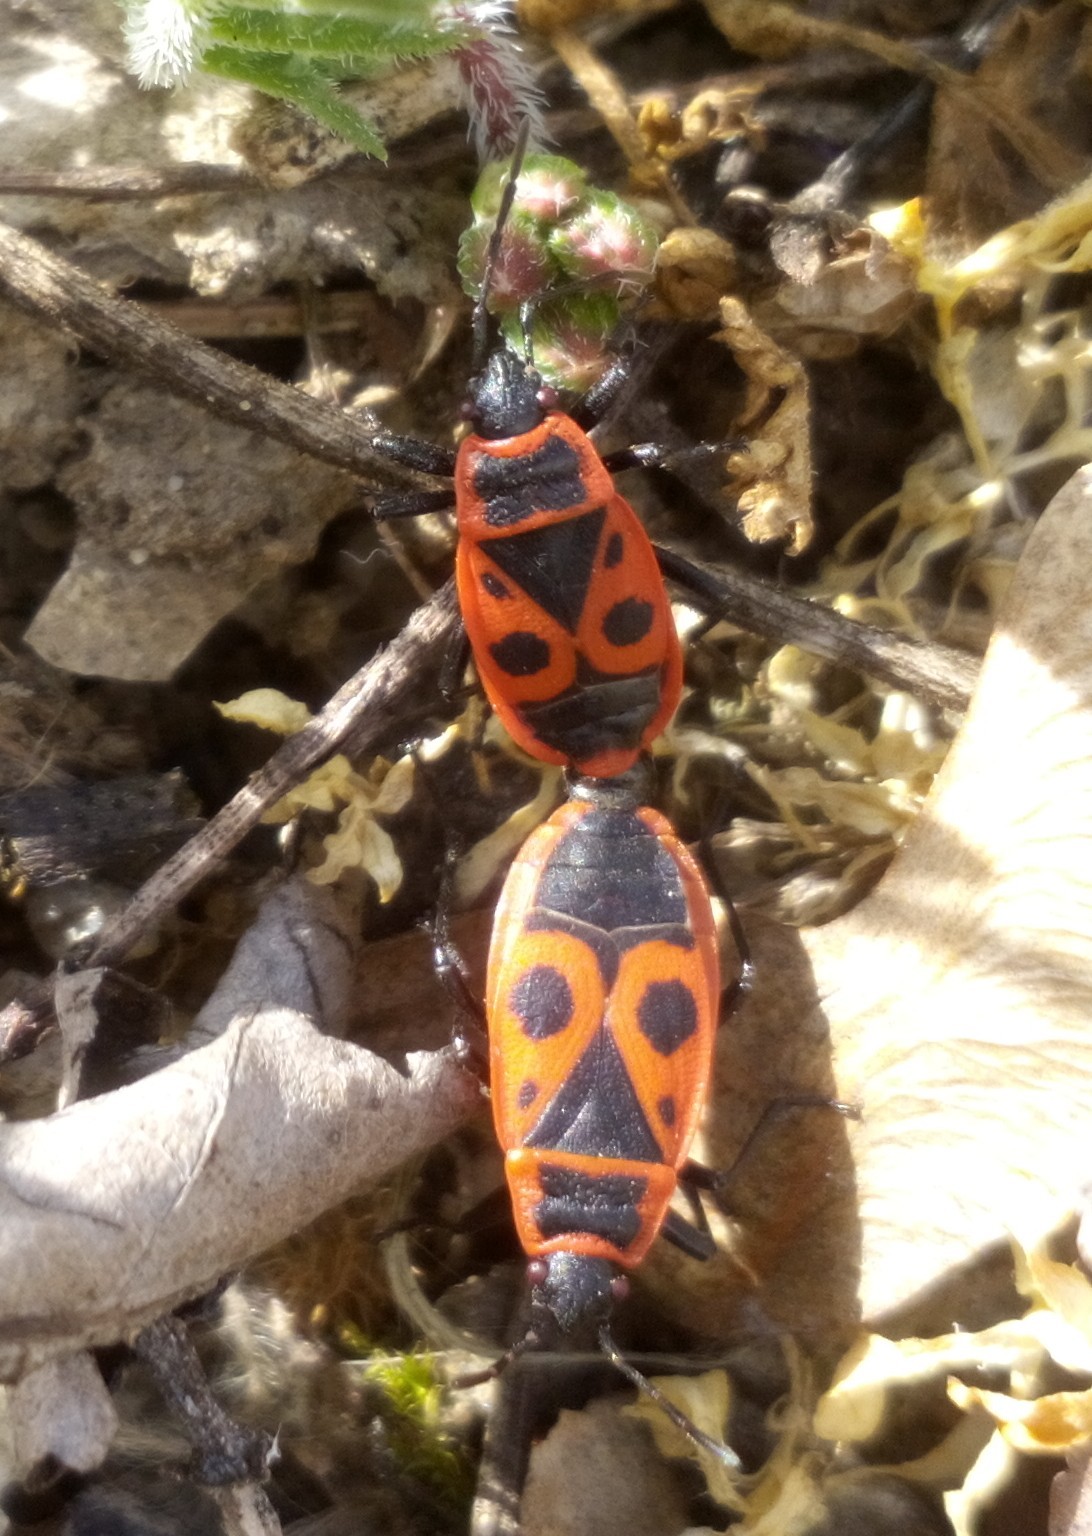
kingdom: Animalia
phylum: Arthropoda
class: Insecta
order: Hemiptera
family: Pyrrhocoridae
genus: Pyrrhocoris
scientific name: Pyrrhocoris apterus
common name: Firebug
